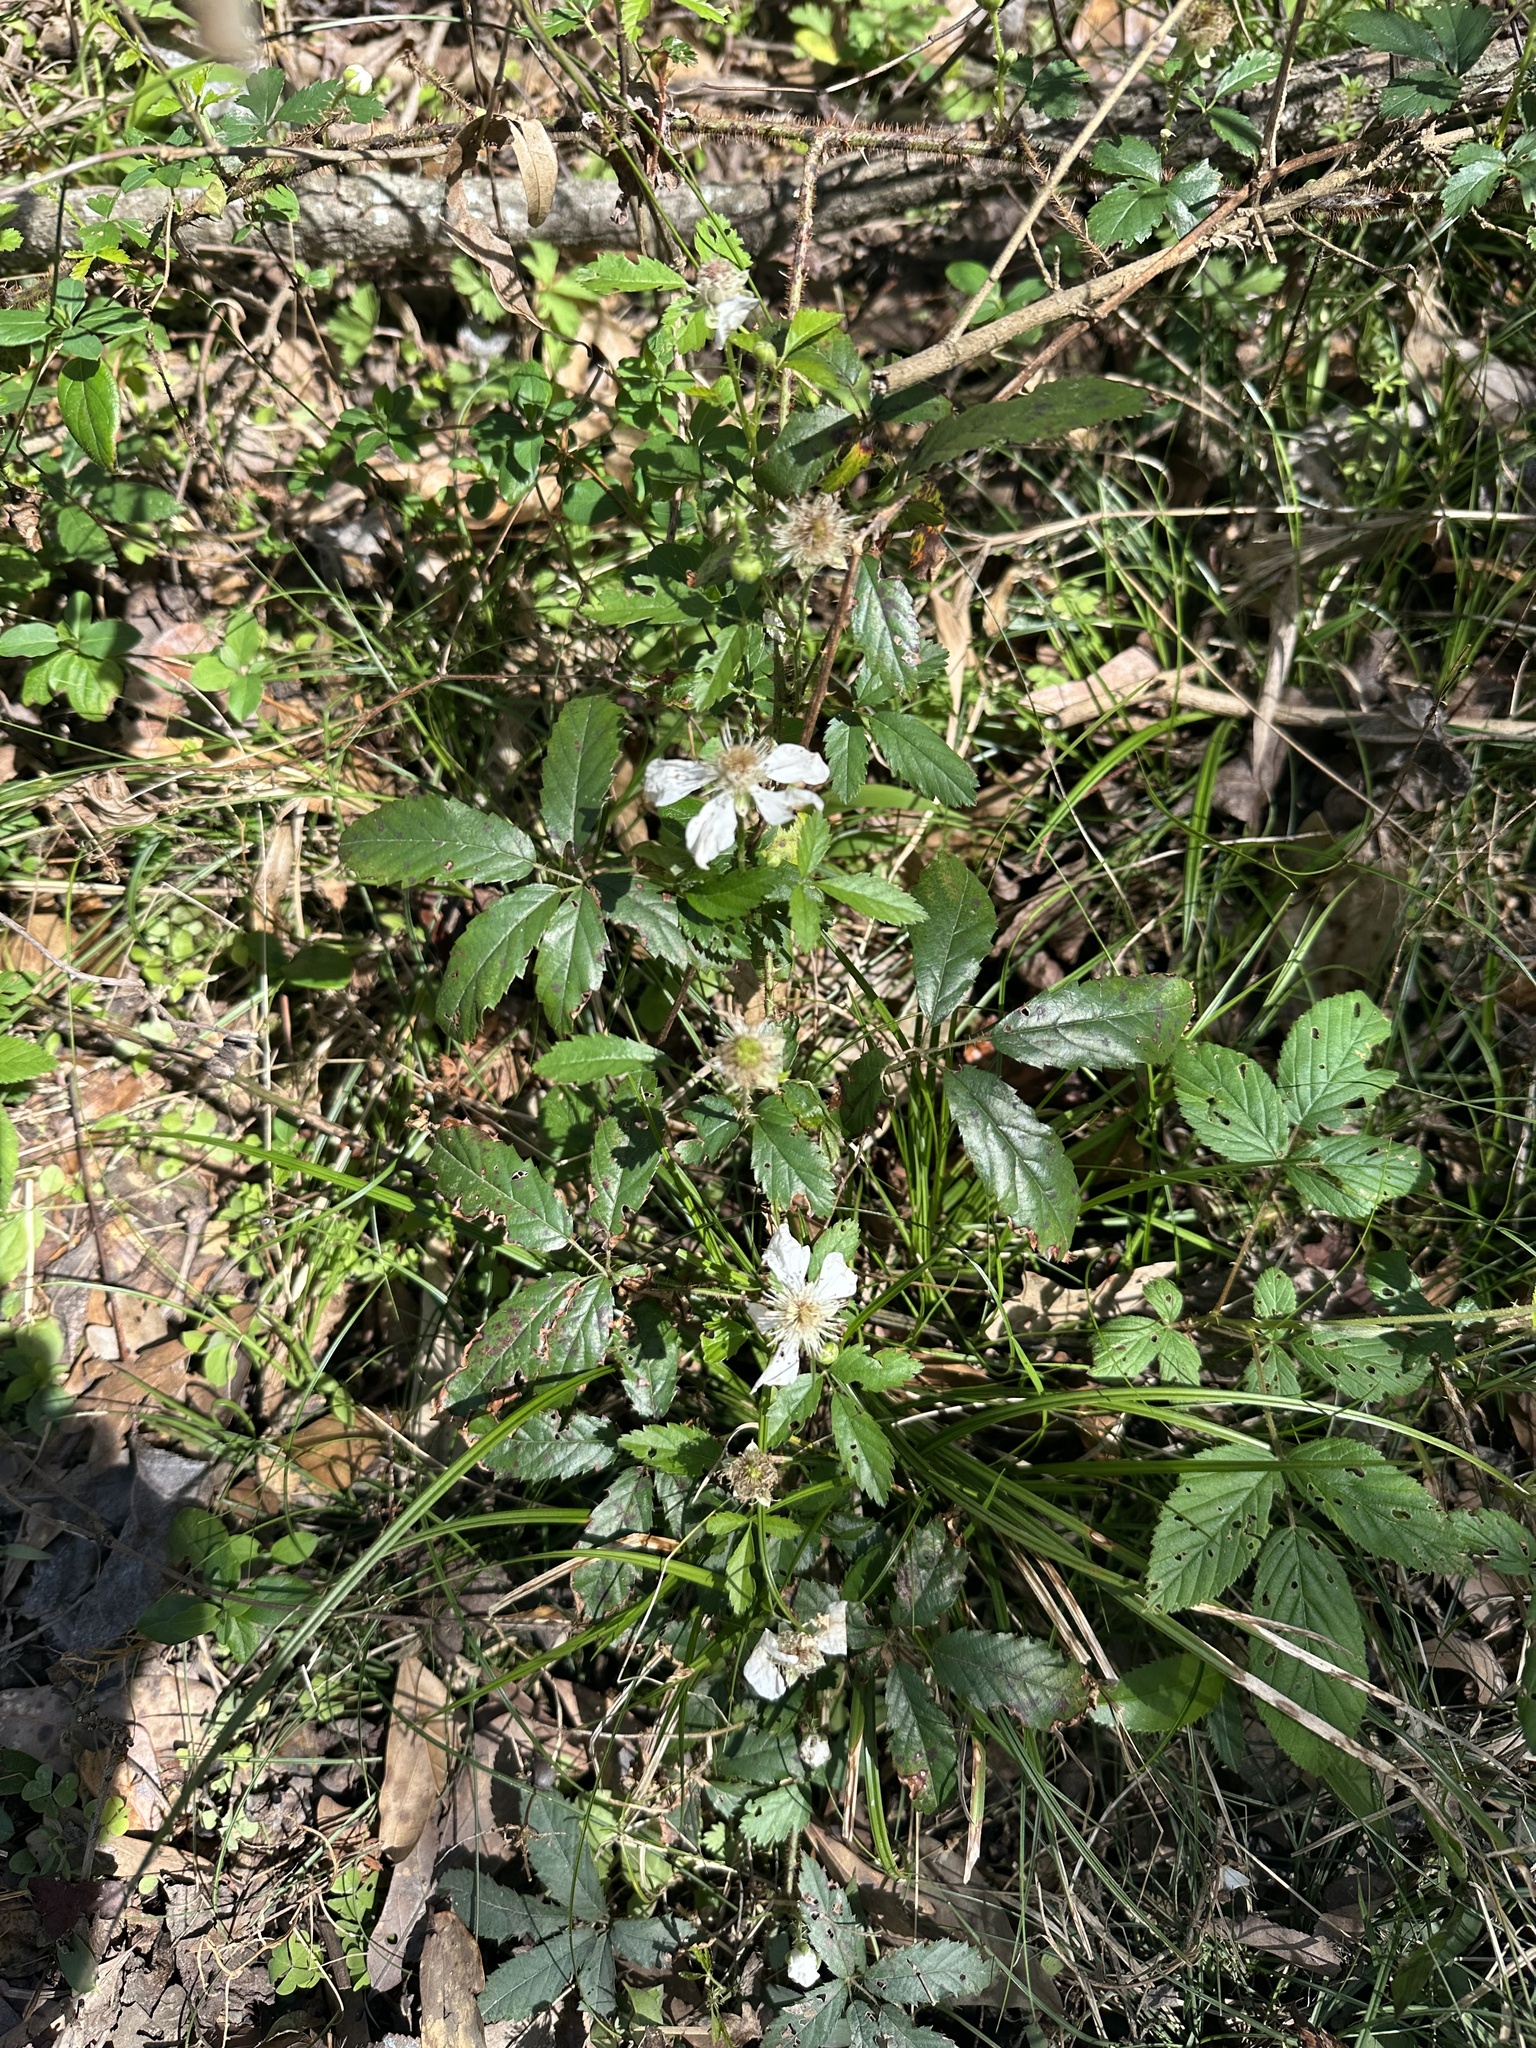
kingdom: Plantae
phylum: Tracheophyta
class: Magnoliopsida
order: Rosales
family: Rosaceae
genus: Rubus
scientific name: Rubus trivialis
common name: Southern dewberry
